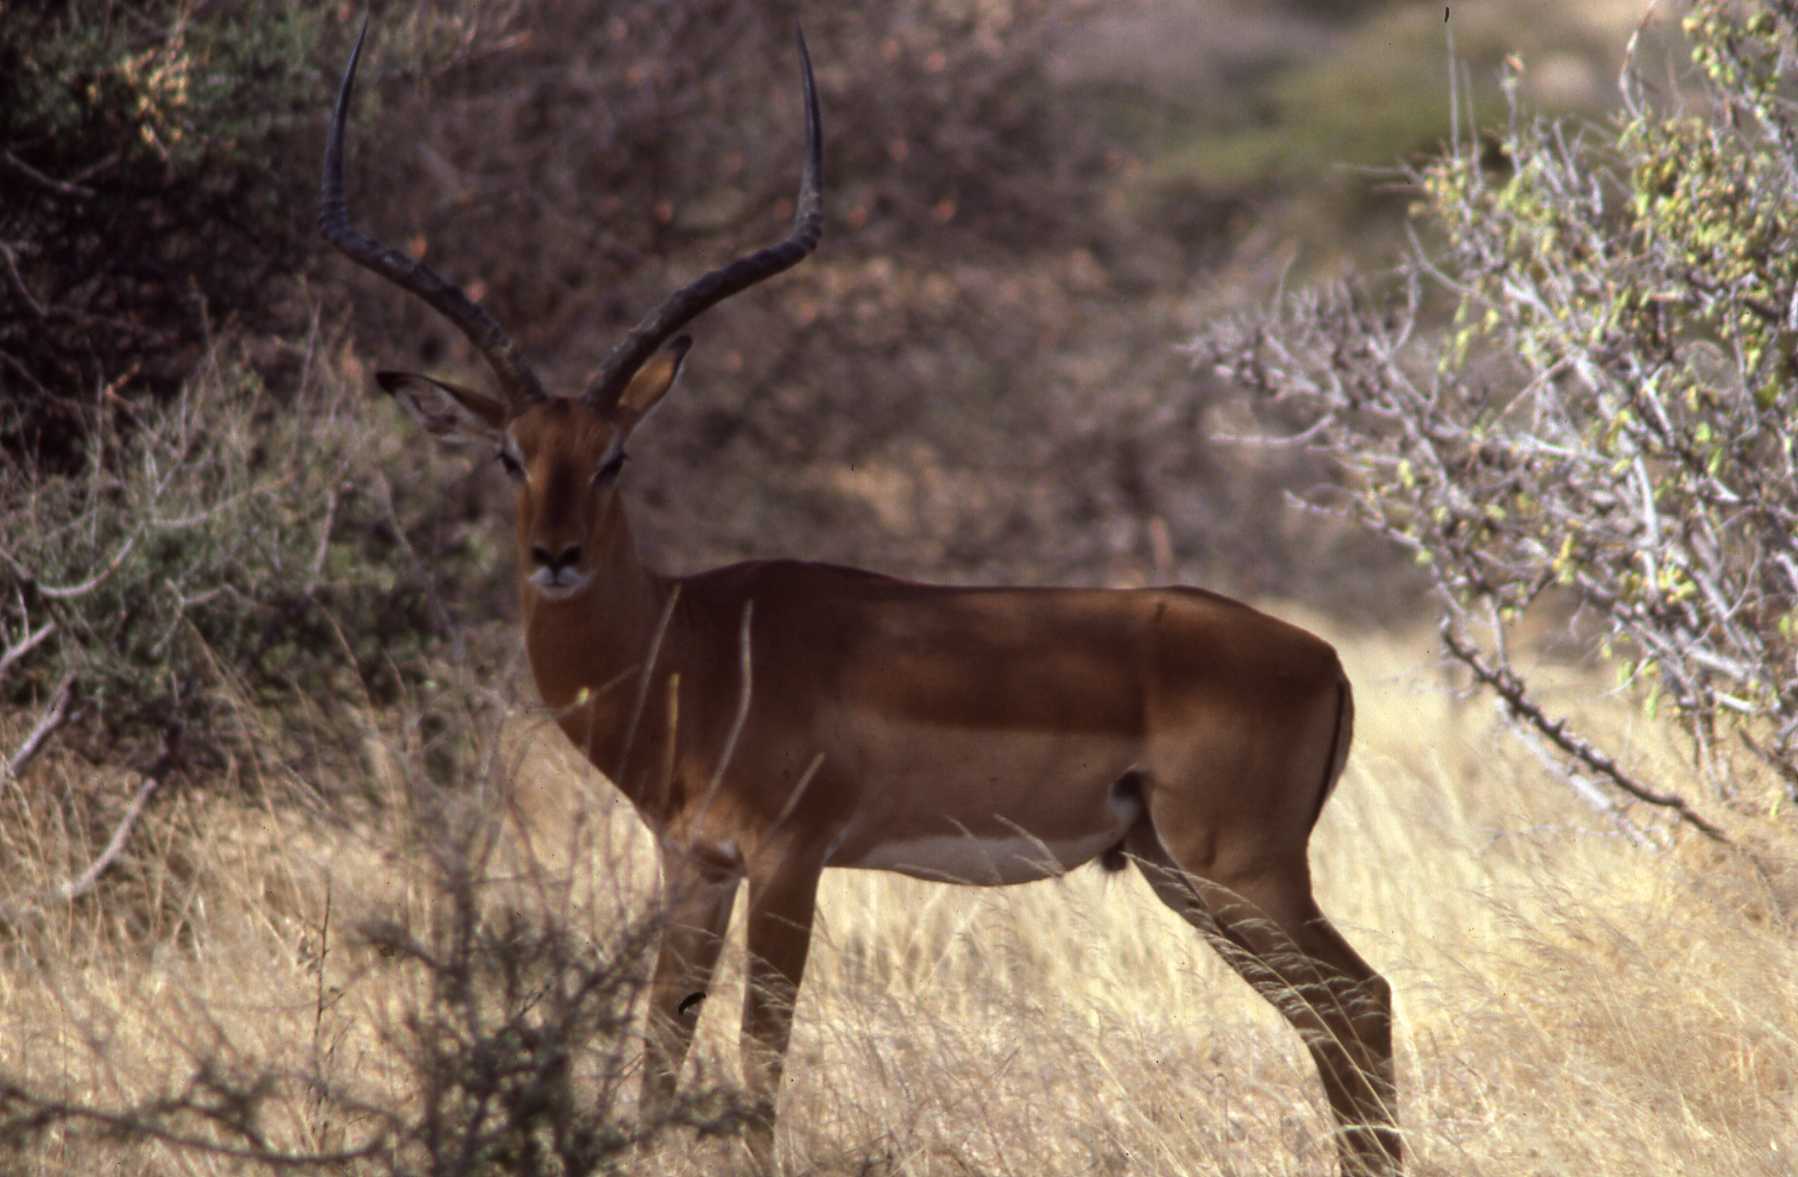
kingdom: Animalia
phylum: Chordata
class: Mammalia
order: Artiodactyla
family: Bovidae
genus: Aepyceros
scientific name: Aepyceros melampus
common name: Impala
